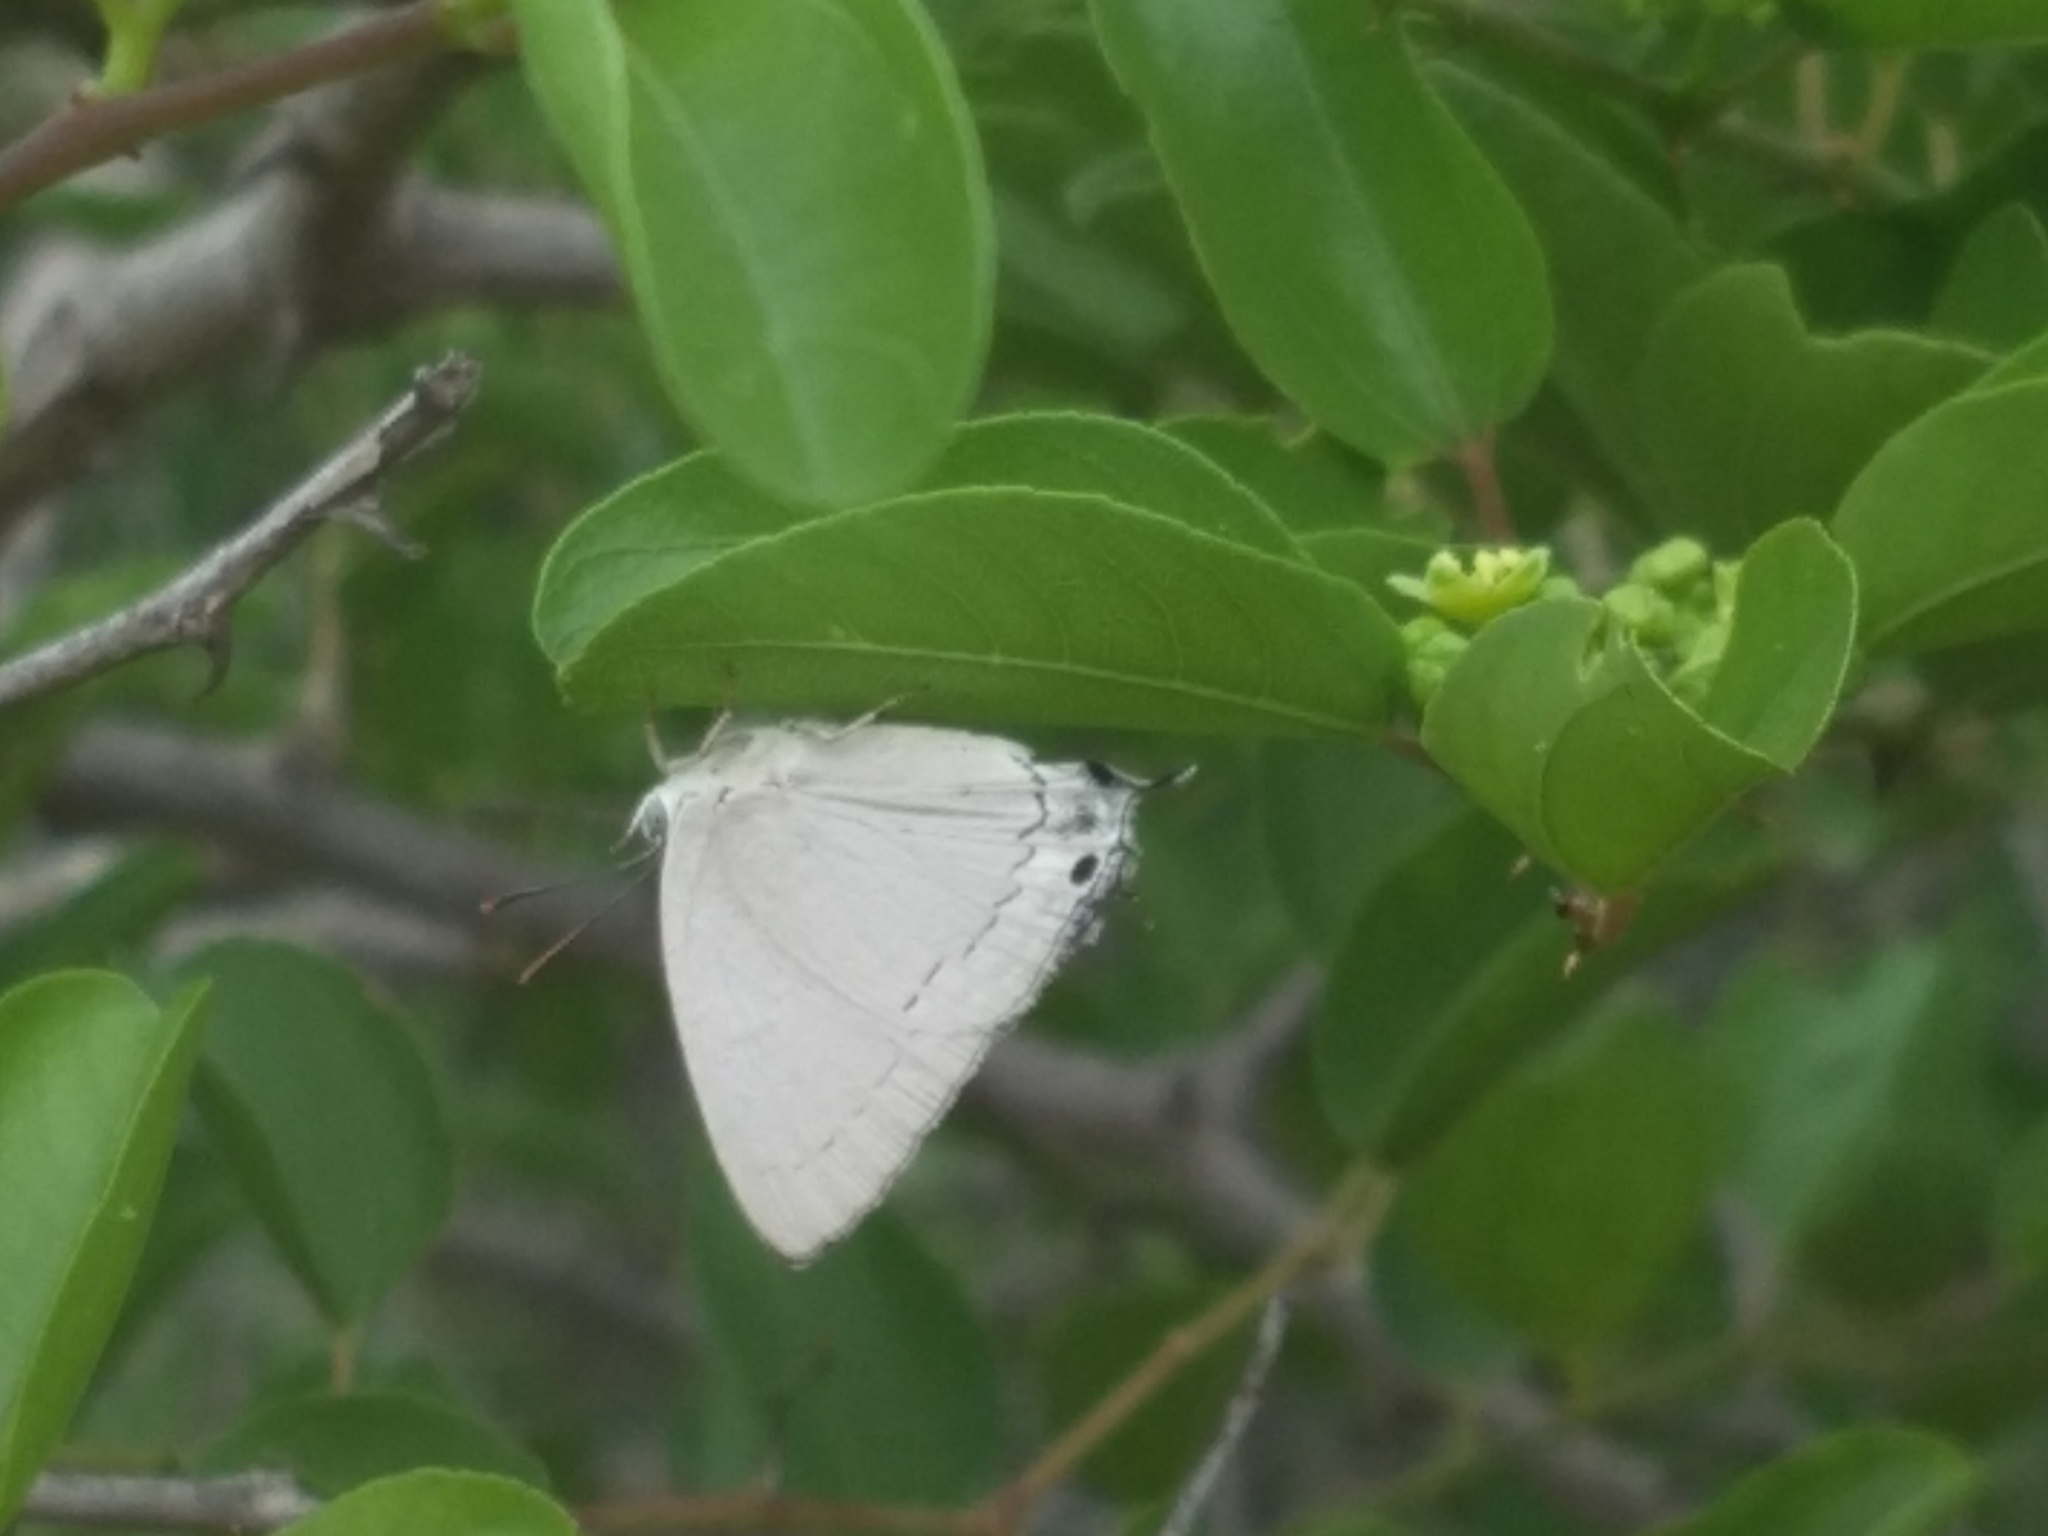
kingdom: Animalia
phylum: Arthropoda
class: Insecta
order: Lepidoptera
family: Lycaenidae
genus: Tajuria
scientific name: Tajuria jehana
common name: Plains blue royal
